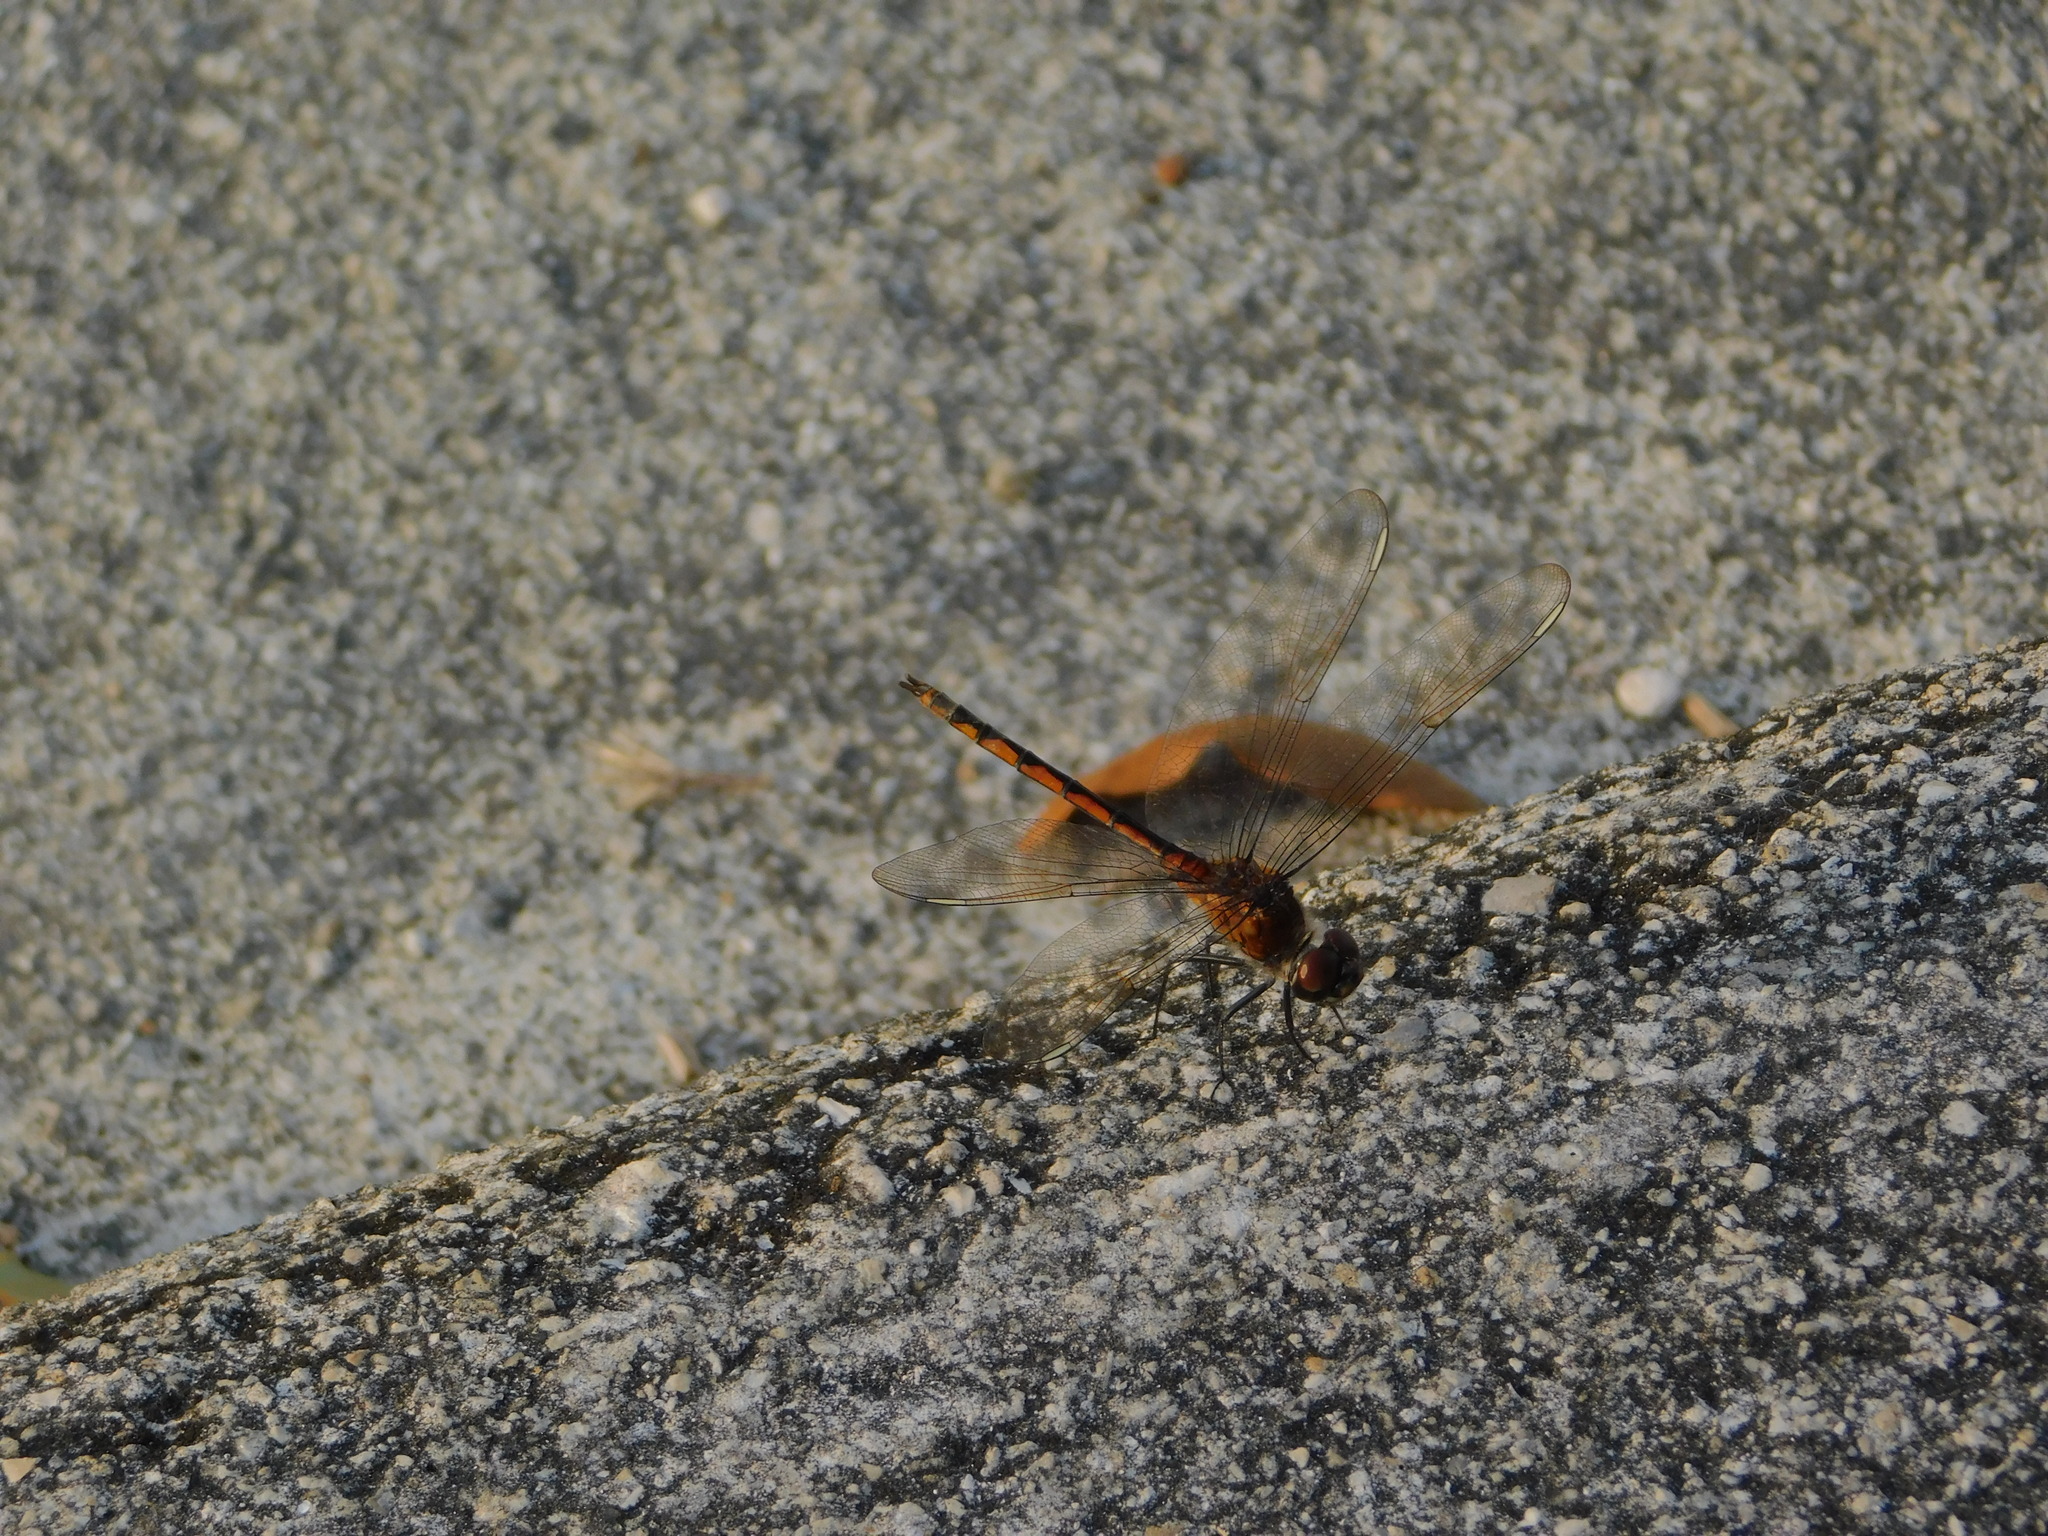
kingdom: Animalia
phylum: Arthropoda
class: Insecta
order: Odonata
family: Libellulidae
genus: Brachymesia
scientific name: Brachymesia gravida
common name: Four-spotted pennant
